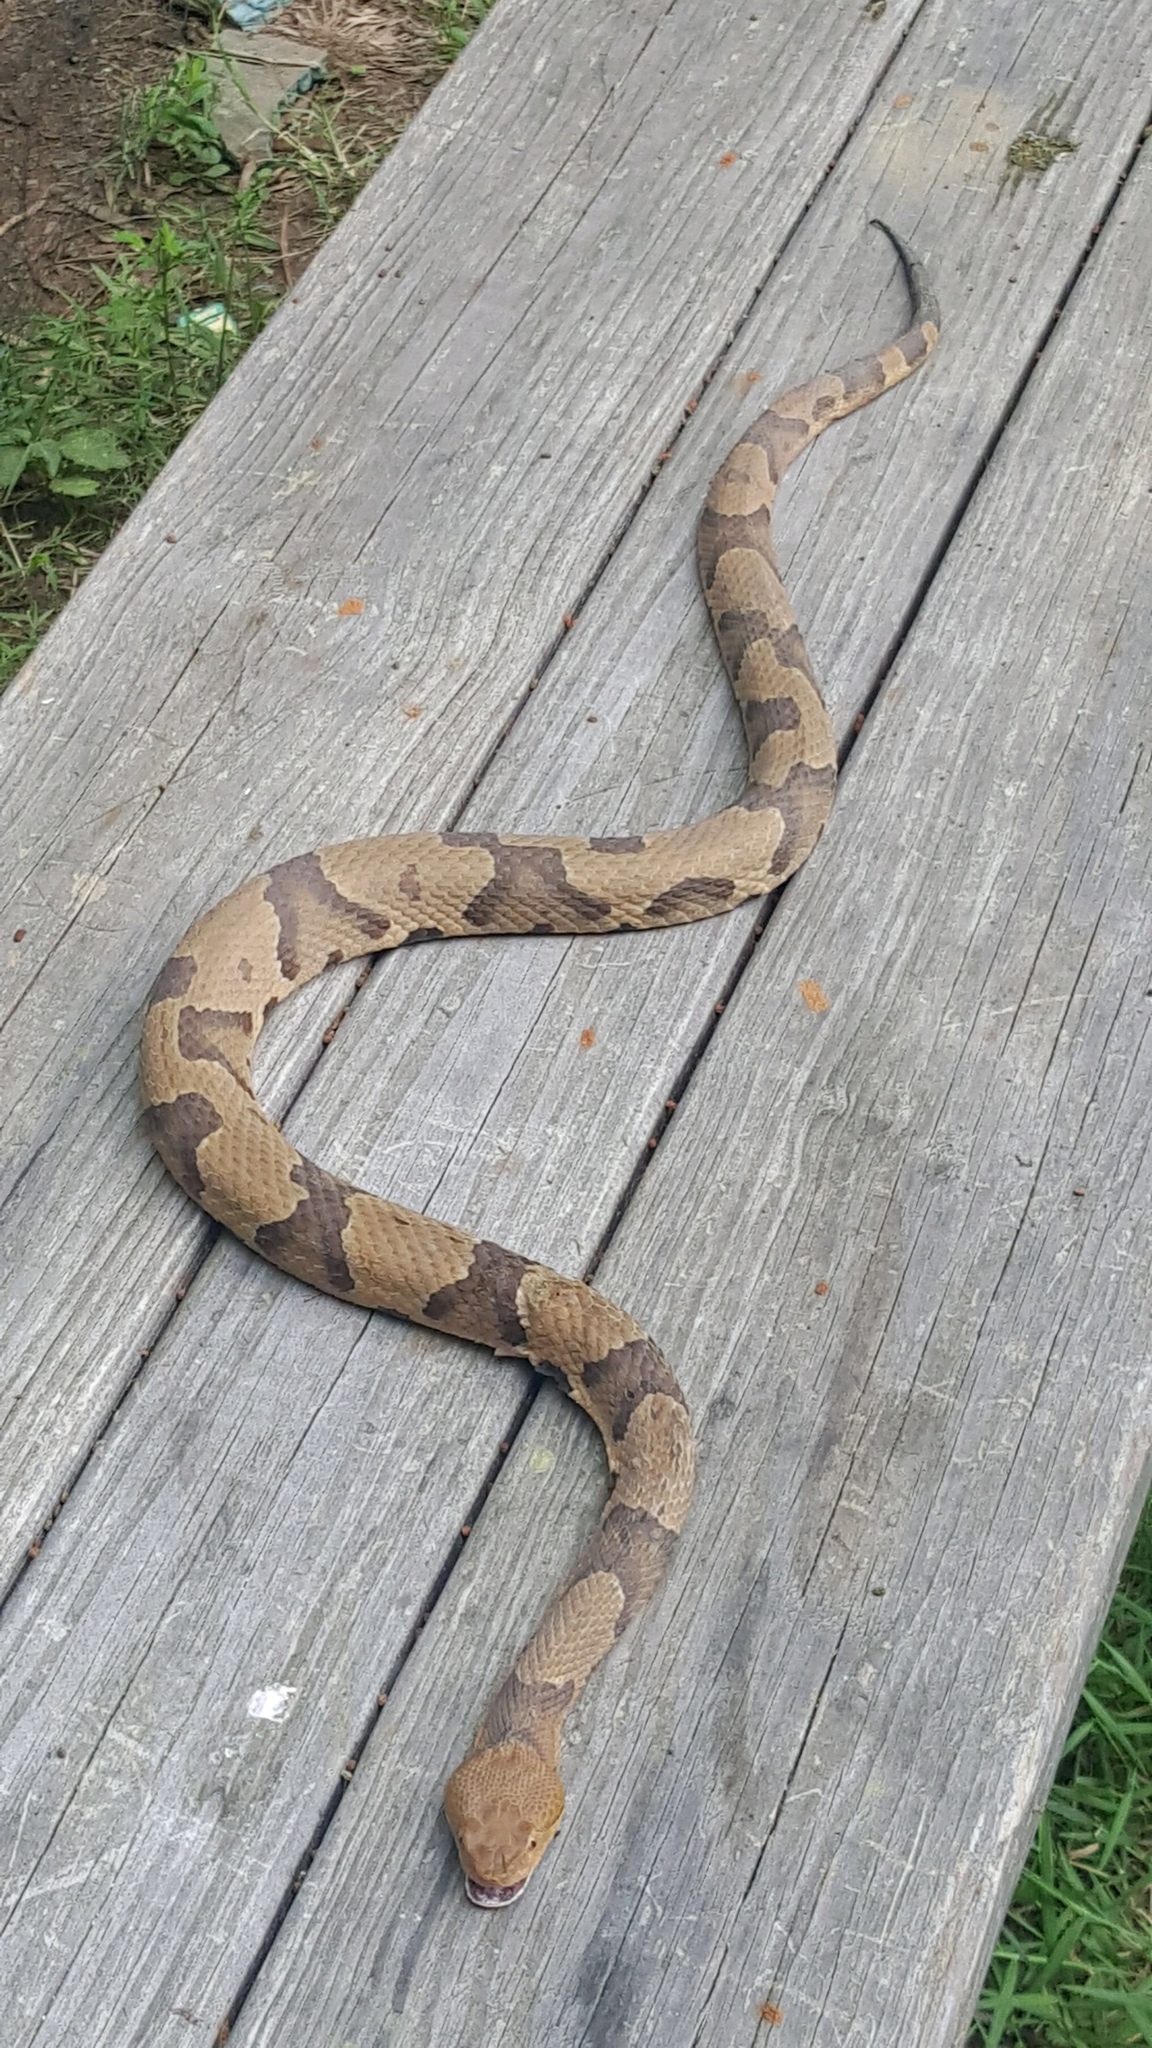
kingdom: Animalia
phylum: Chordata
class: Squamata
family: Viperidae
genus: Agkistrodon
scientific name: Agkistrodon contortrix
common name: Northern copperhead
